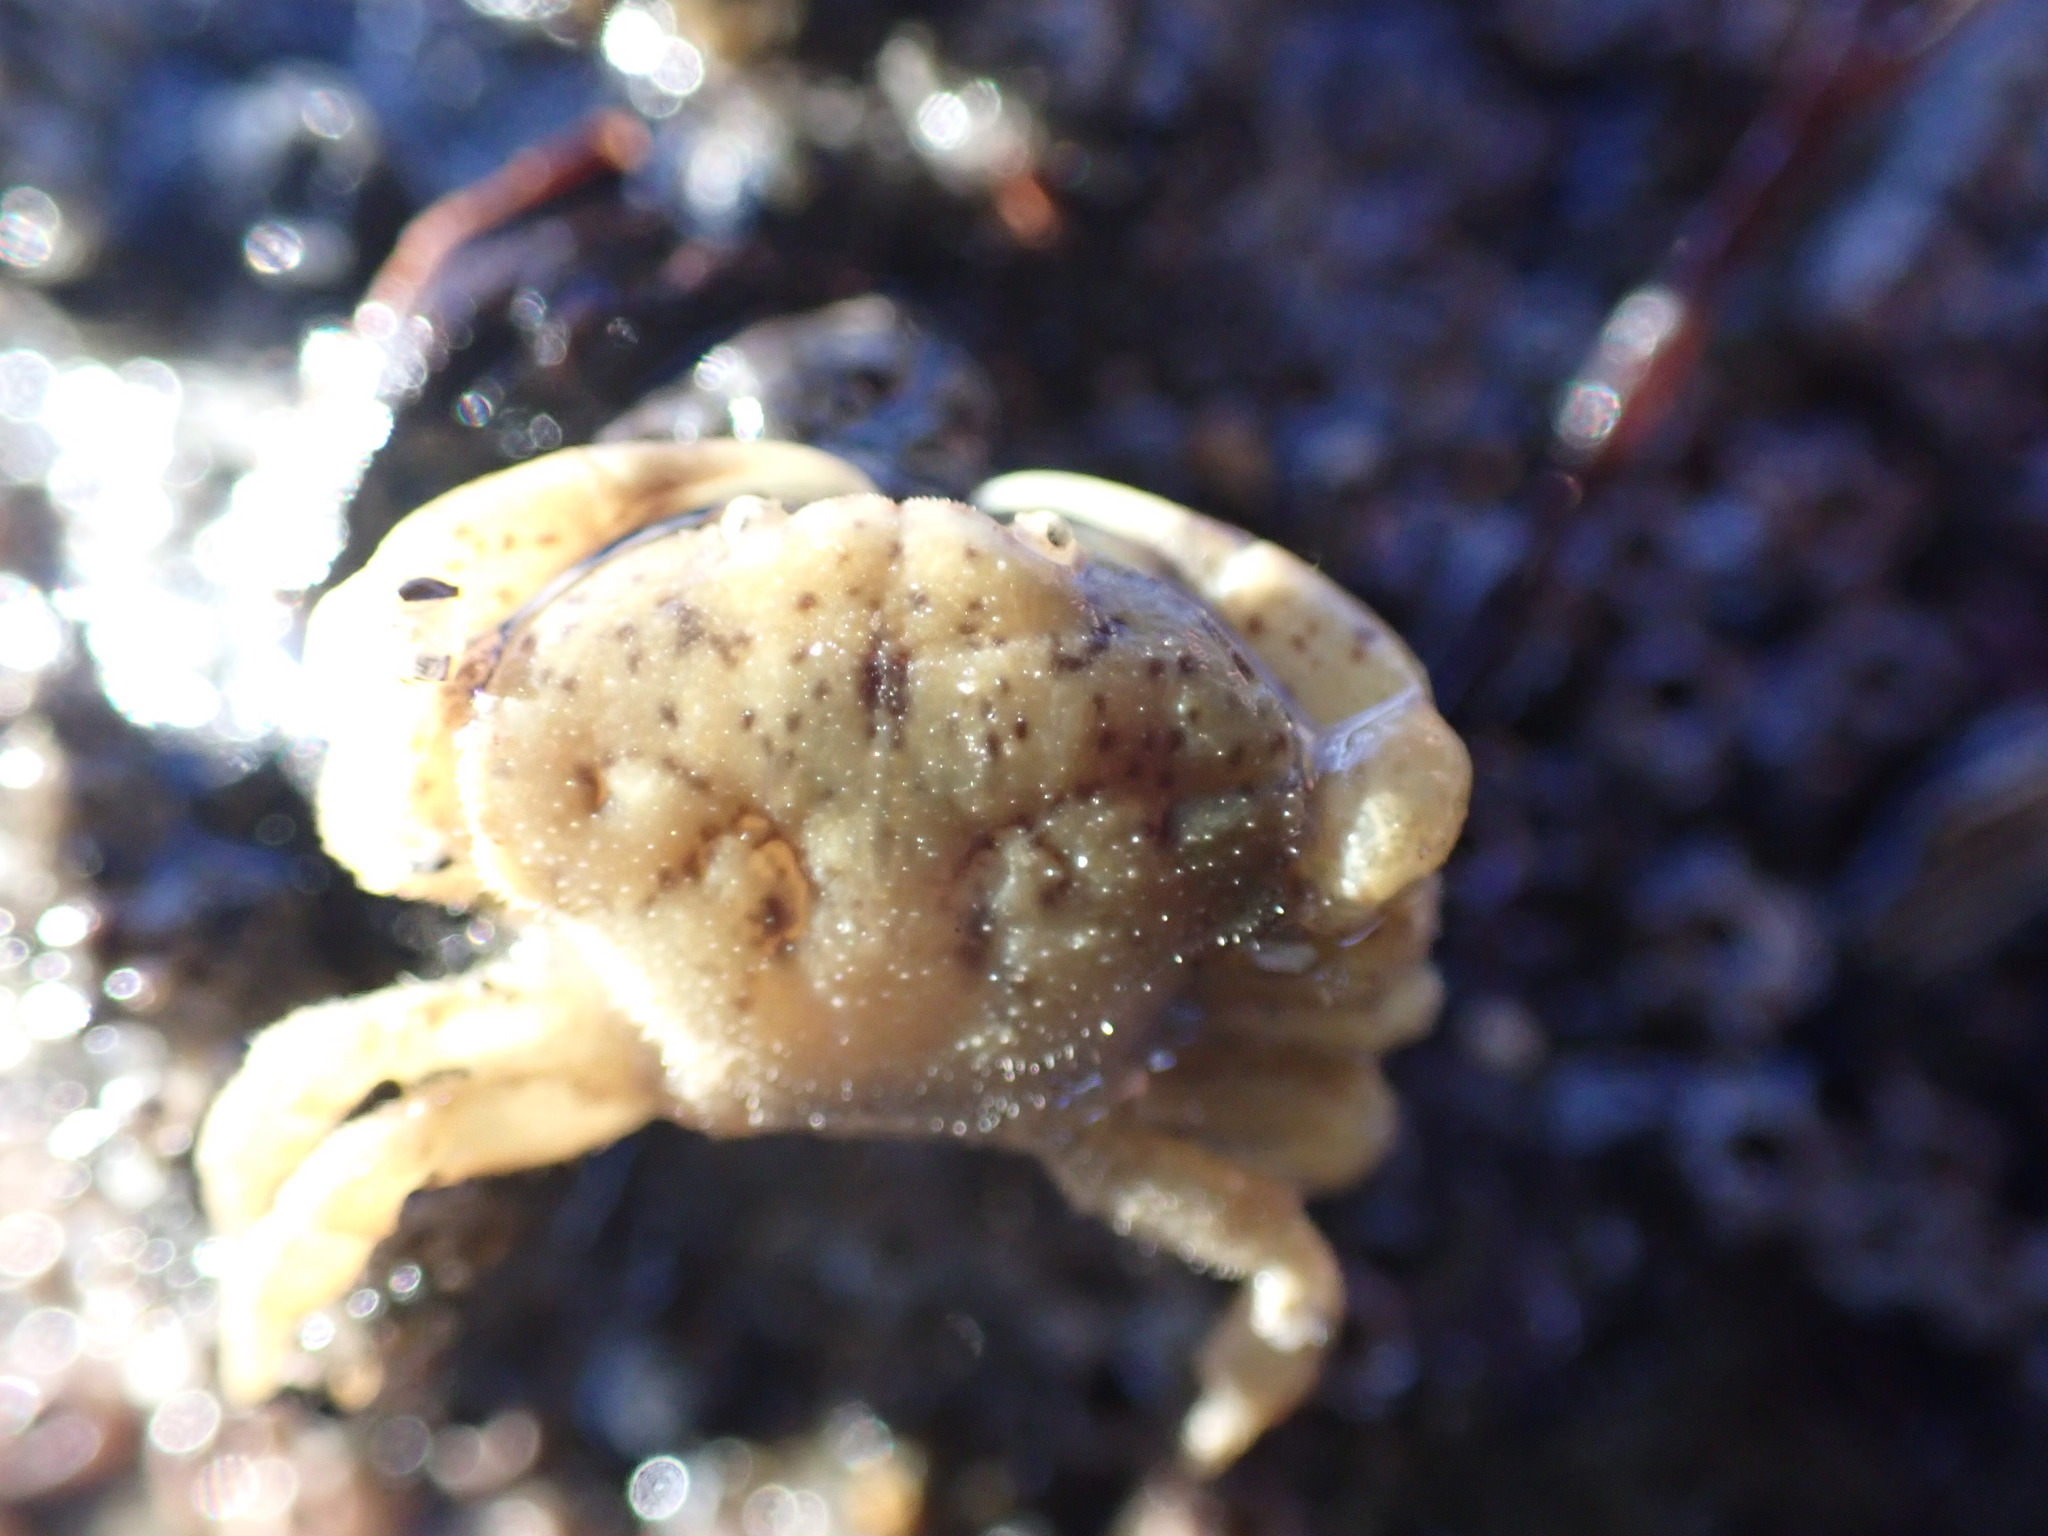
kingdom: Animalia
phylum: Arthropoda
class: Malacostraca
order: Decapoda
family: Heteroziidae
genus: Heterozius
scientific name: Heterozius rotundifrons
